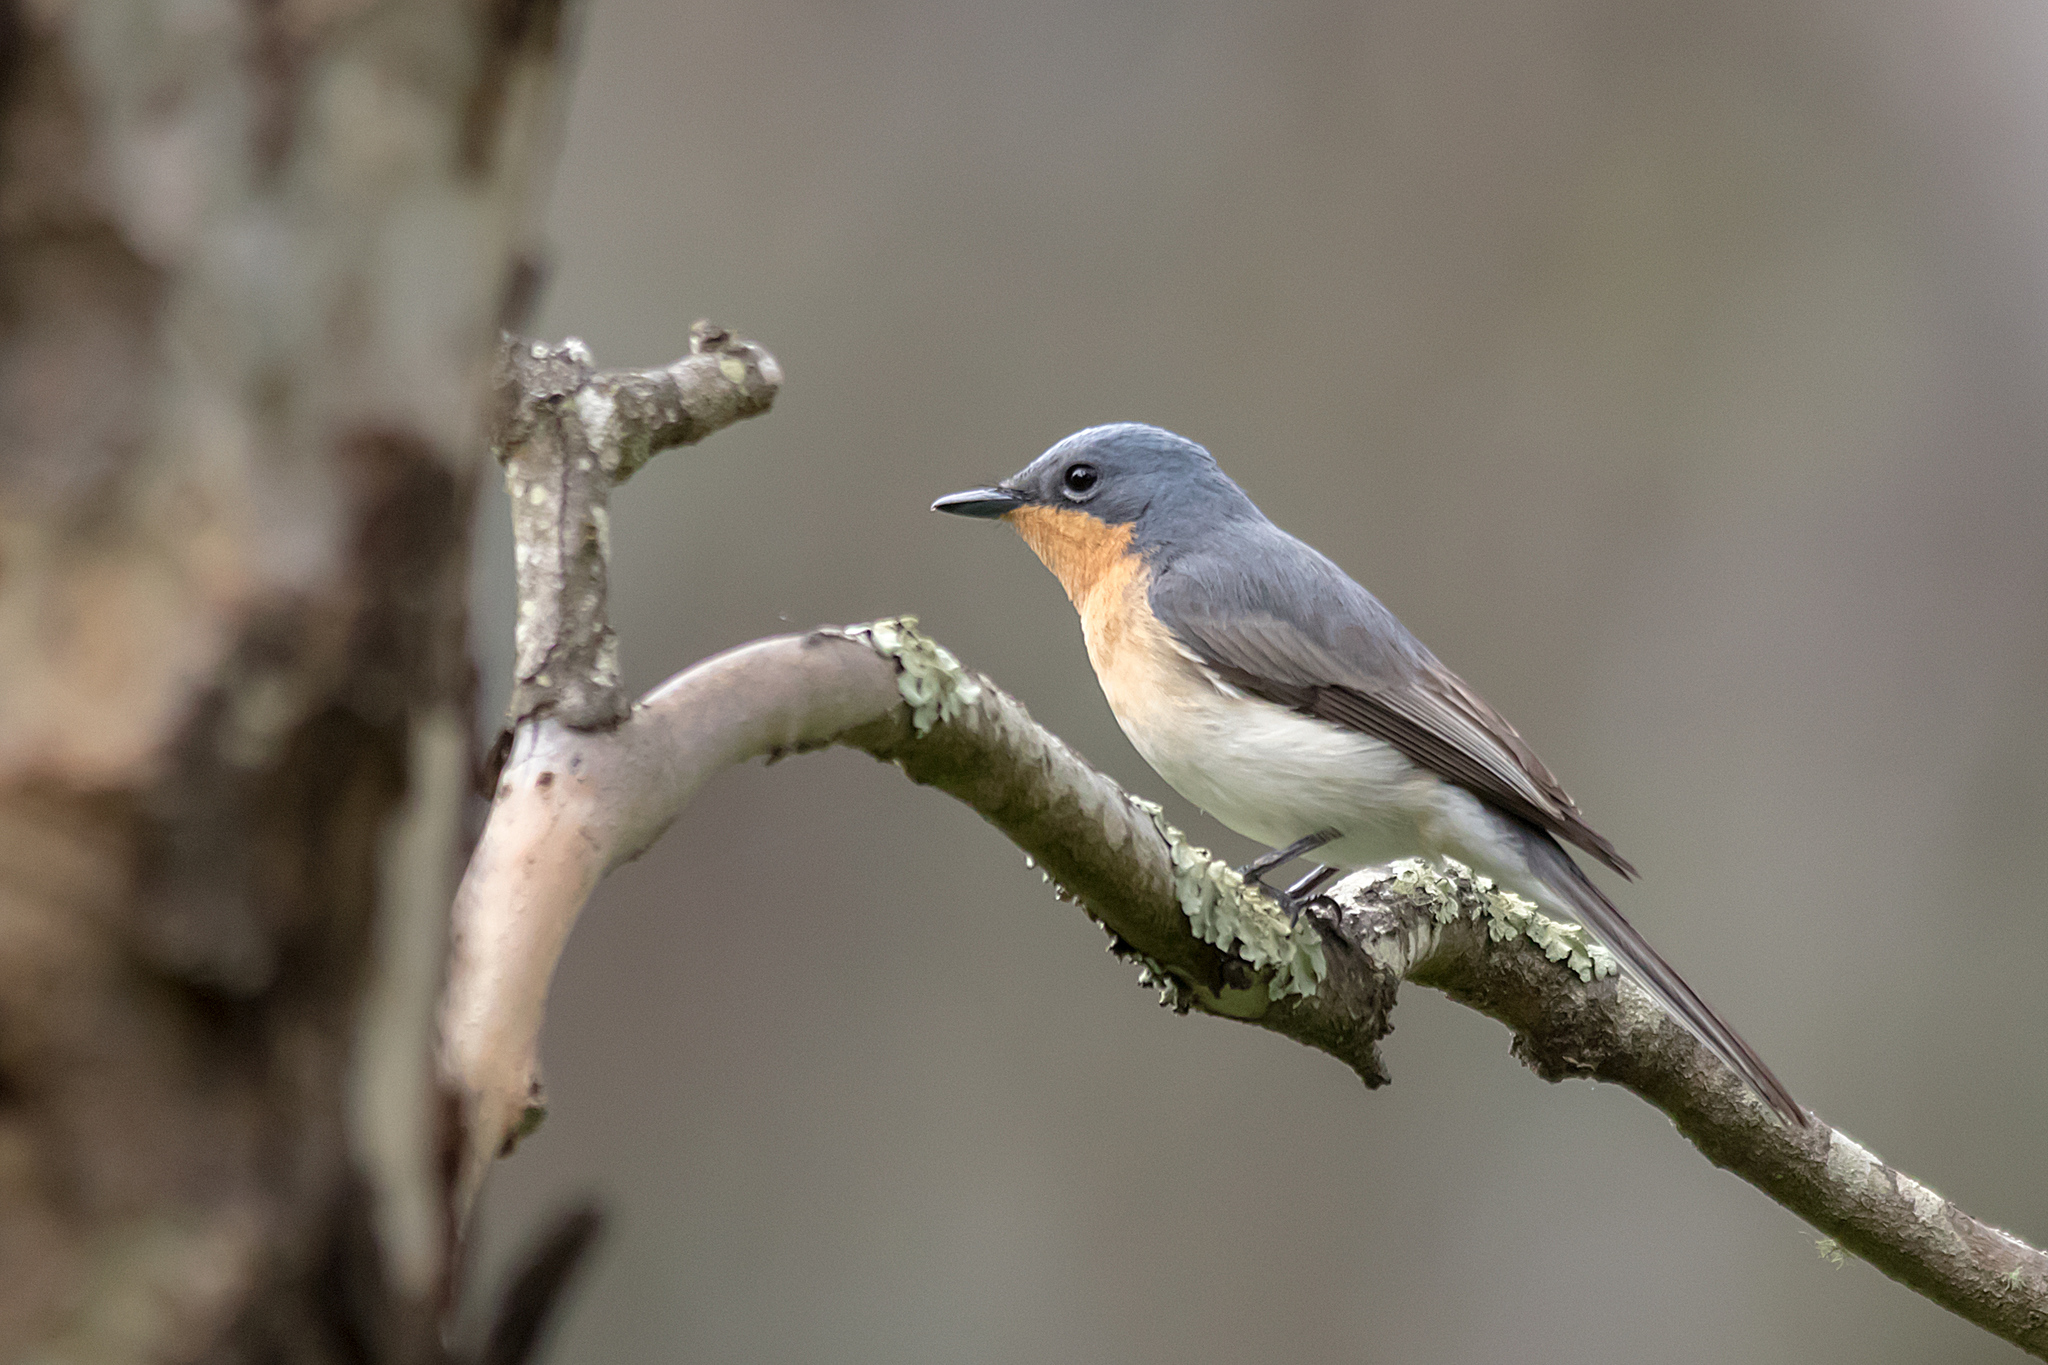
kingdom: Animalia
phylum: Chordata
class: Aves
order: Passeriformes
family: Monarchidae
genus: Myiagra
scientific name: Myiagra rubecula
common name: Leaden flycatcher
